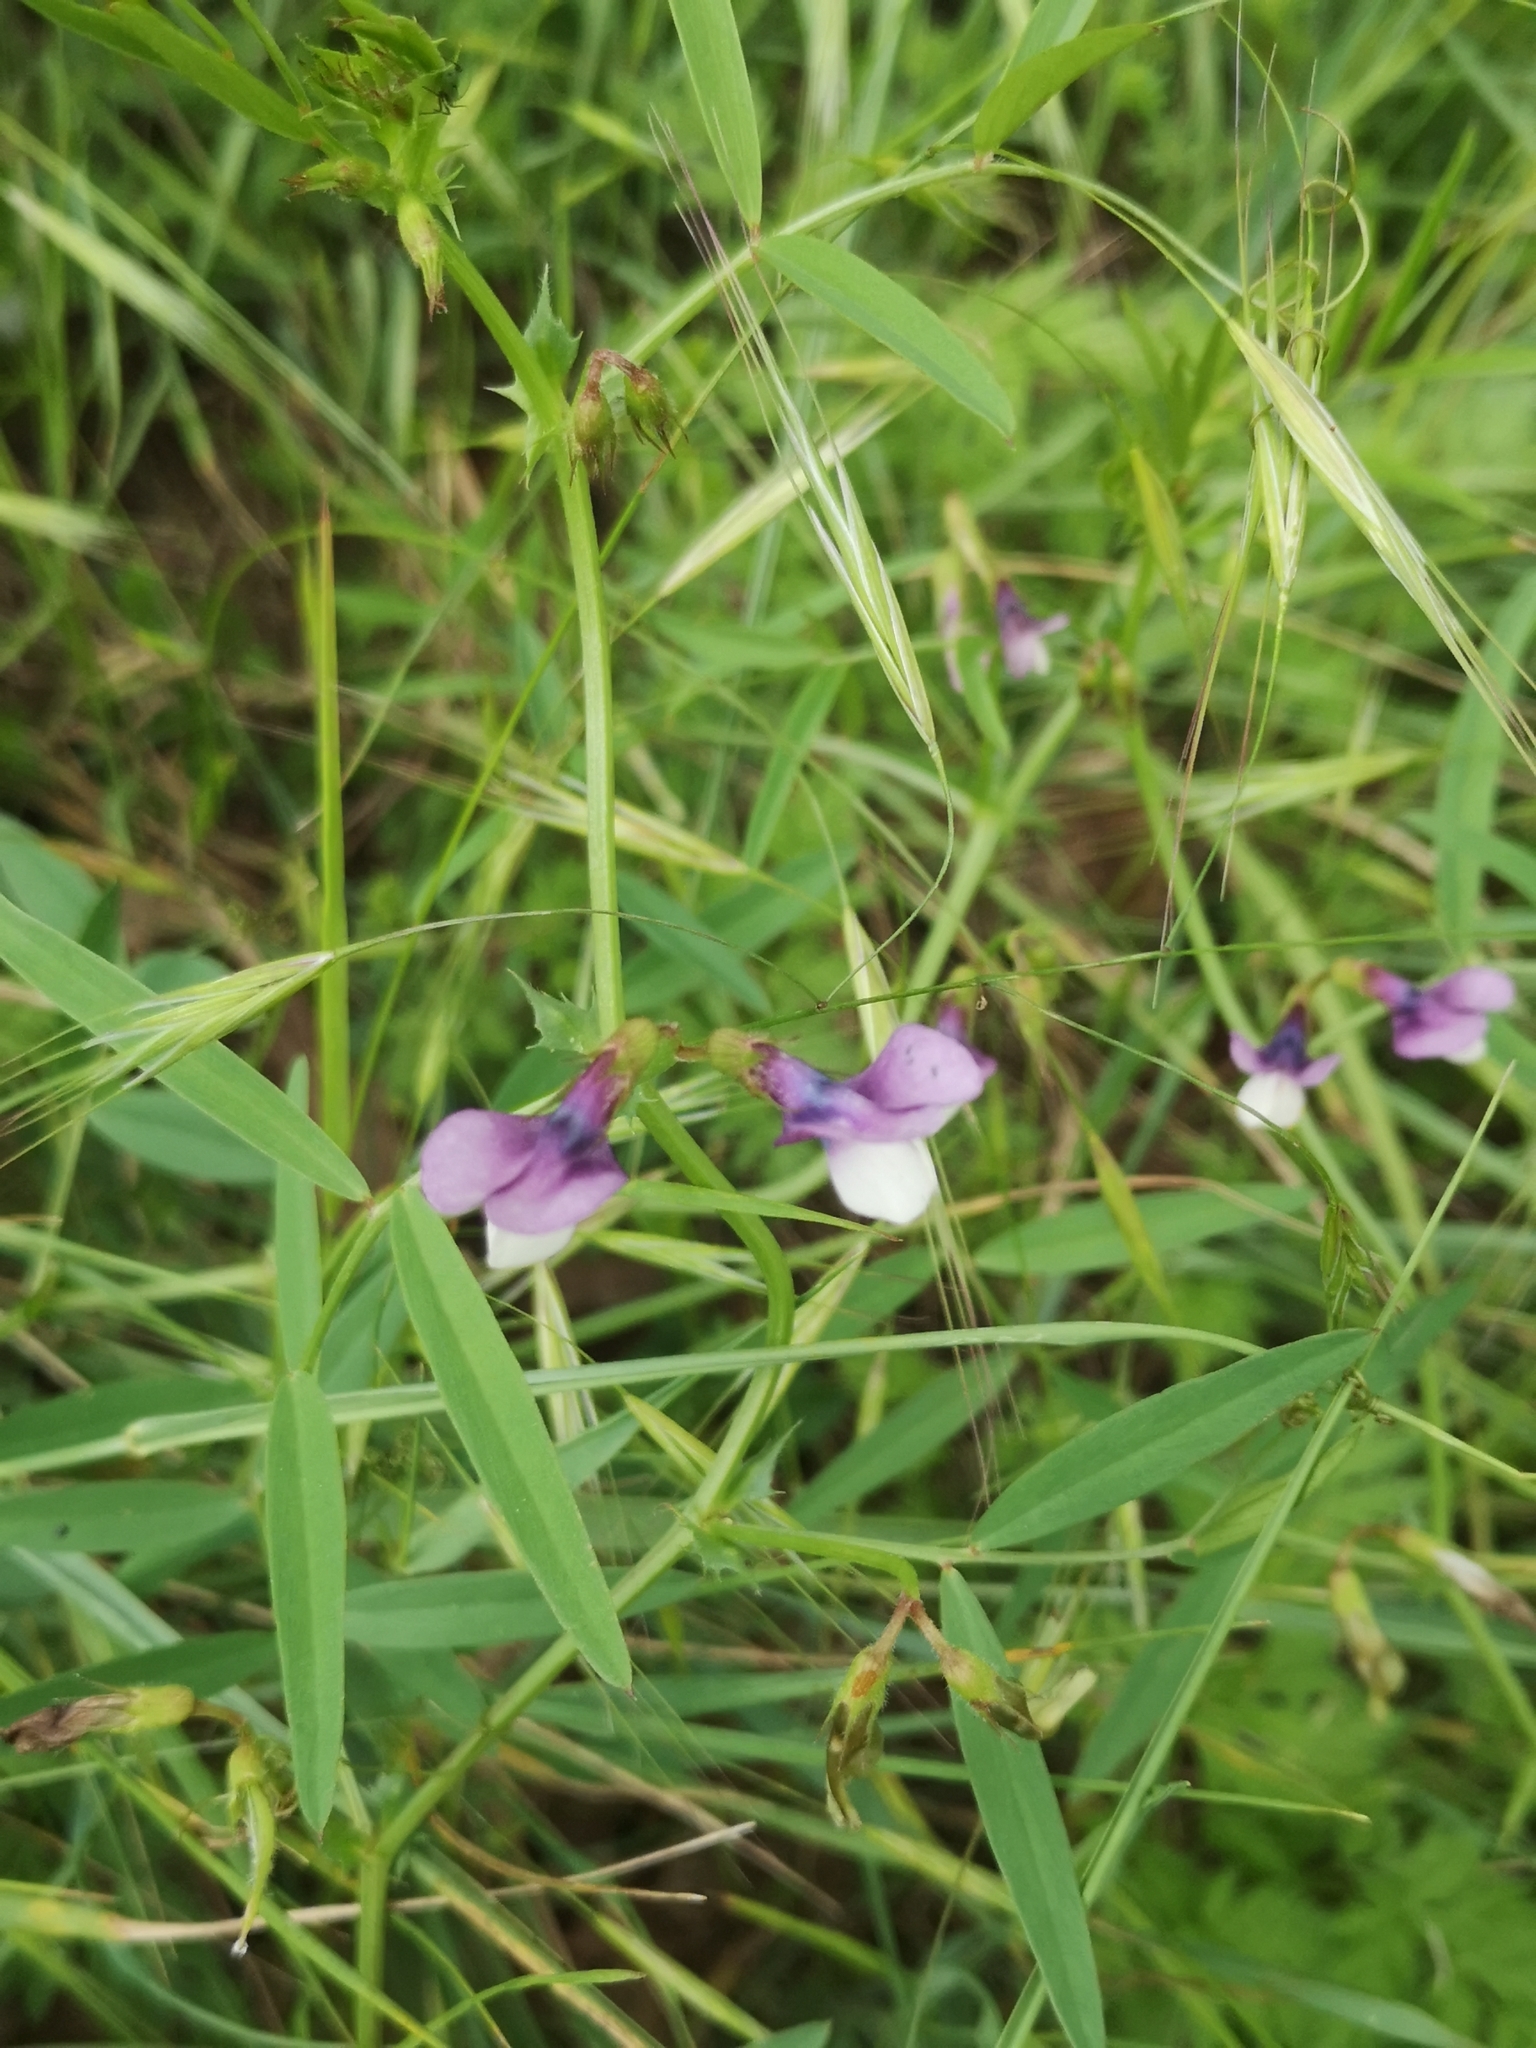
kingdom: Plantae
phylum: Tracheophyta
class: Magnoliopsida
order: Fabales
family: Fabaceae
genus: Vicia
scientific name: Vicia bithynica
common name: Bithynian vetch
